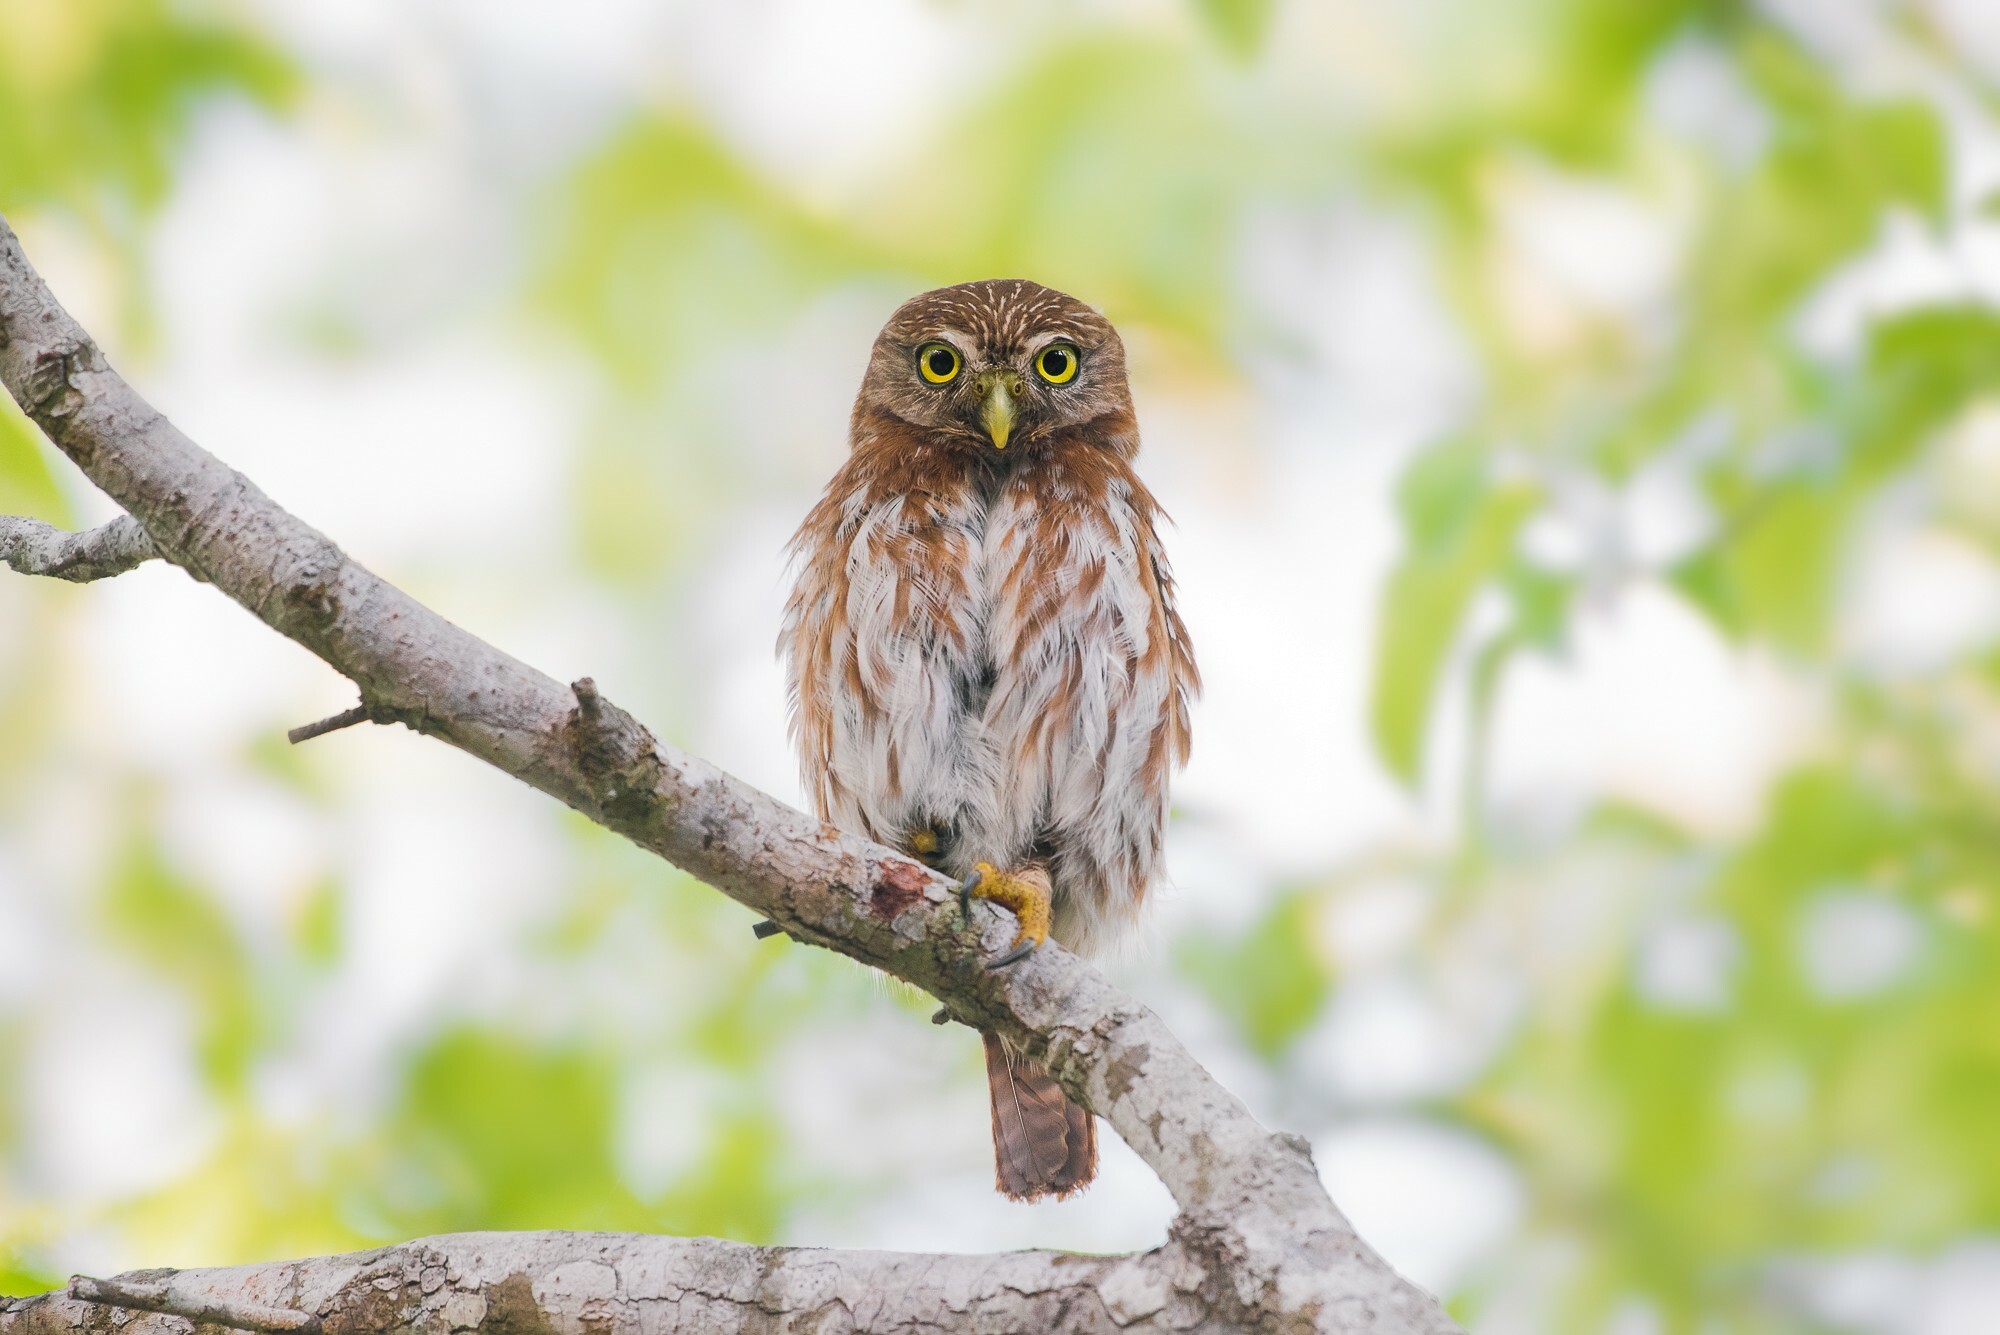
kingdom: Animalia
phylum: Chordata
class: Aves
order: Strigiformes
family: Strigidae
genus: Glaucidium
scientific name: Glaucidium brasilianum
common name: Ferruginous pygmy-owl
